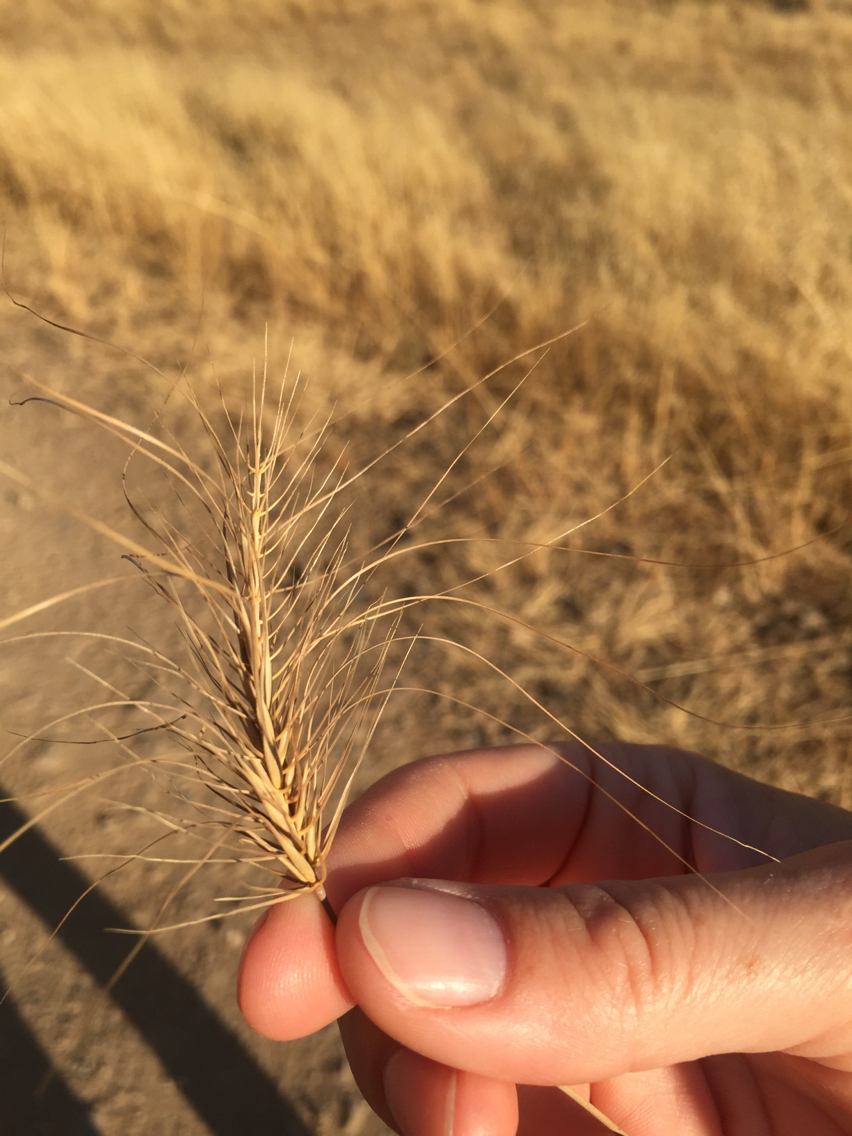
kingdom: Plantae
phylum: Tracheophyta
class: Liliopsida
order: Poales
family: Poaceae
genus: Taeniatherum
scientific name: Taeniatherum caput-medusae
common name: Medusahead
